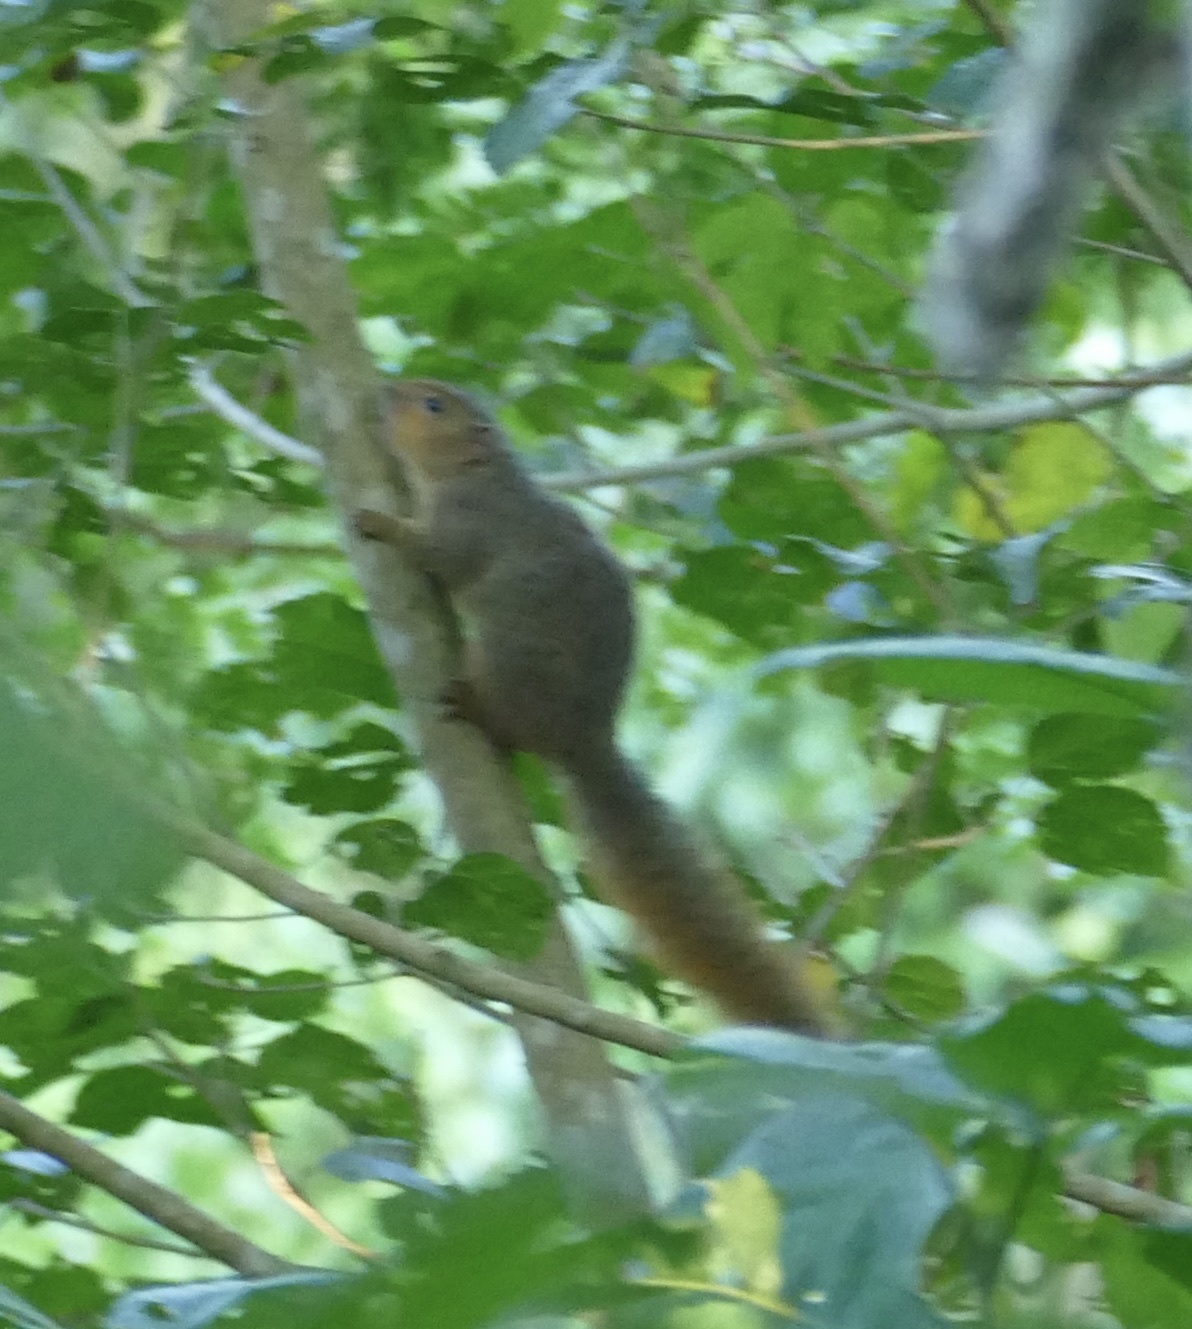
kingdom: Animalia
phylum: Chordata
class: Mammalia
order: Rodentia
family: Sciuridae
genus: Paraxerus
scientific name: Paraxerus palliatus
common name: Red bush squirrel
